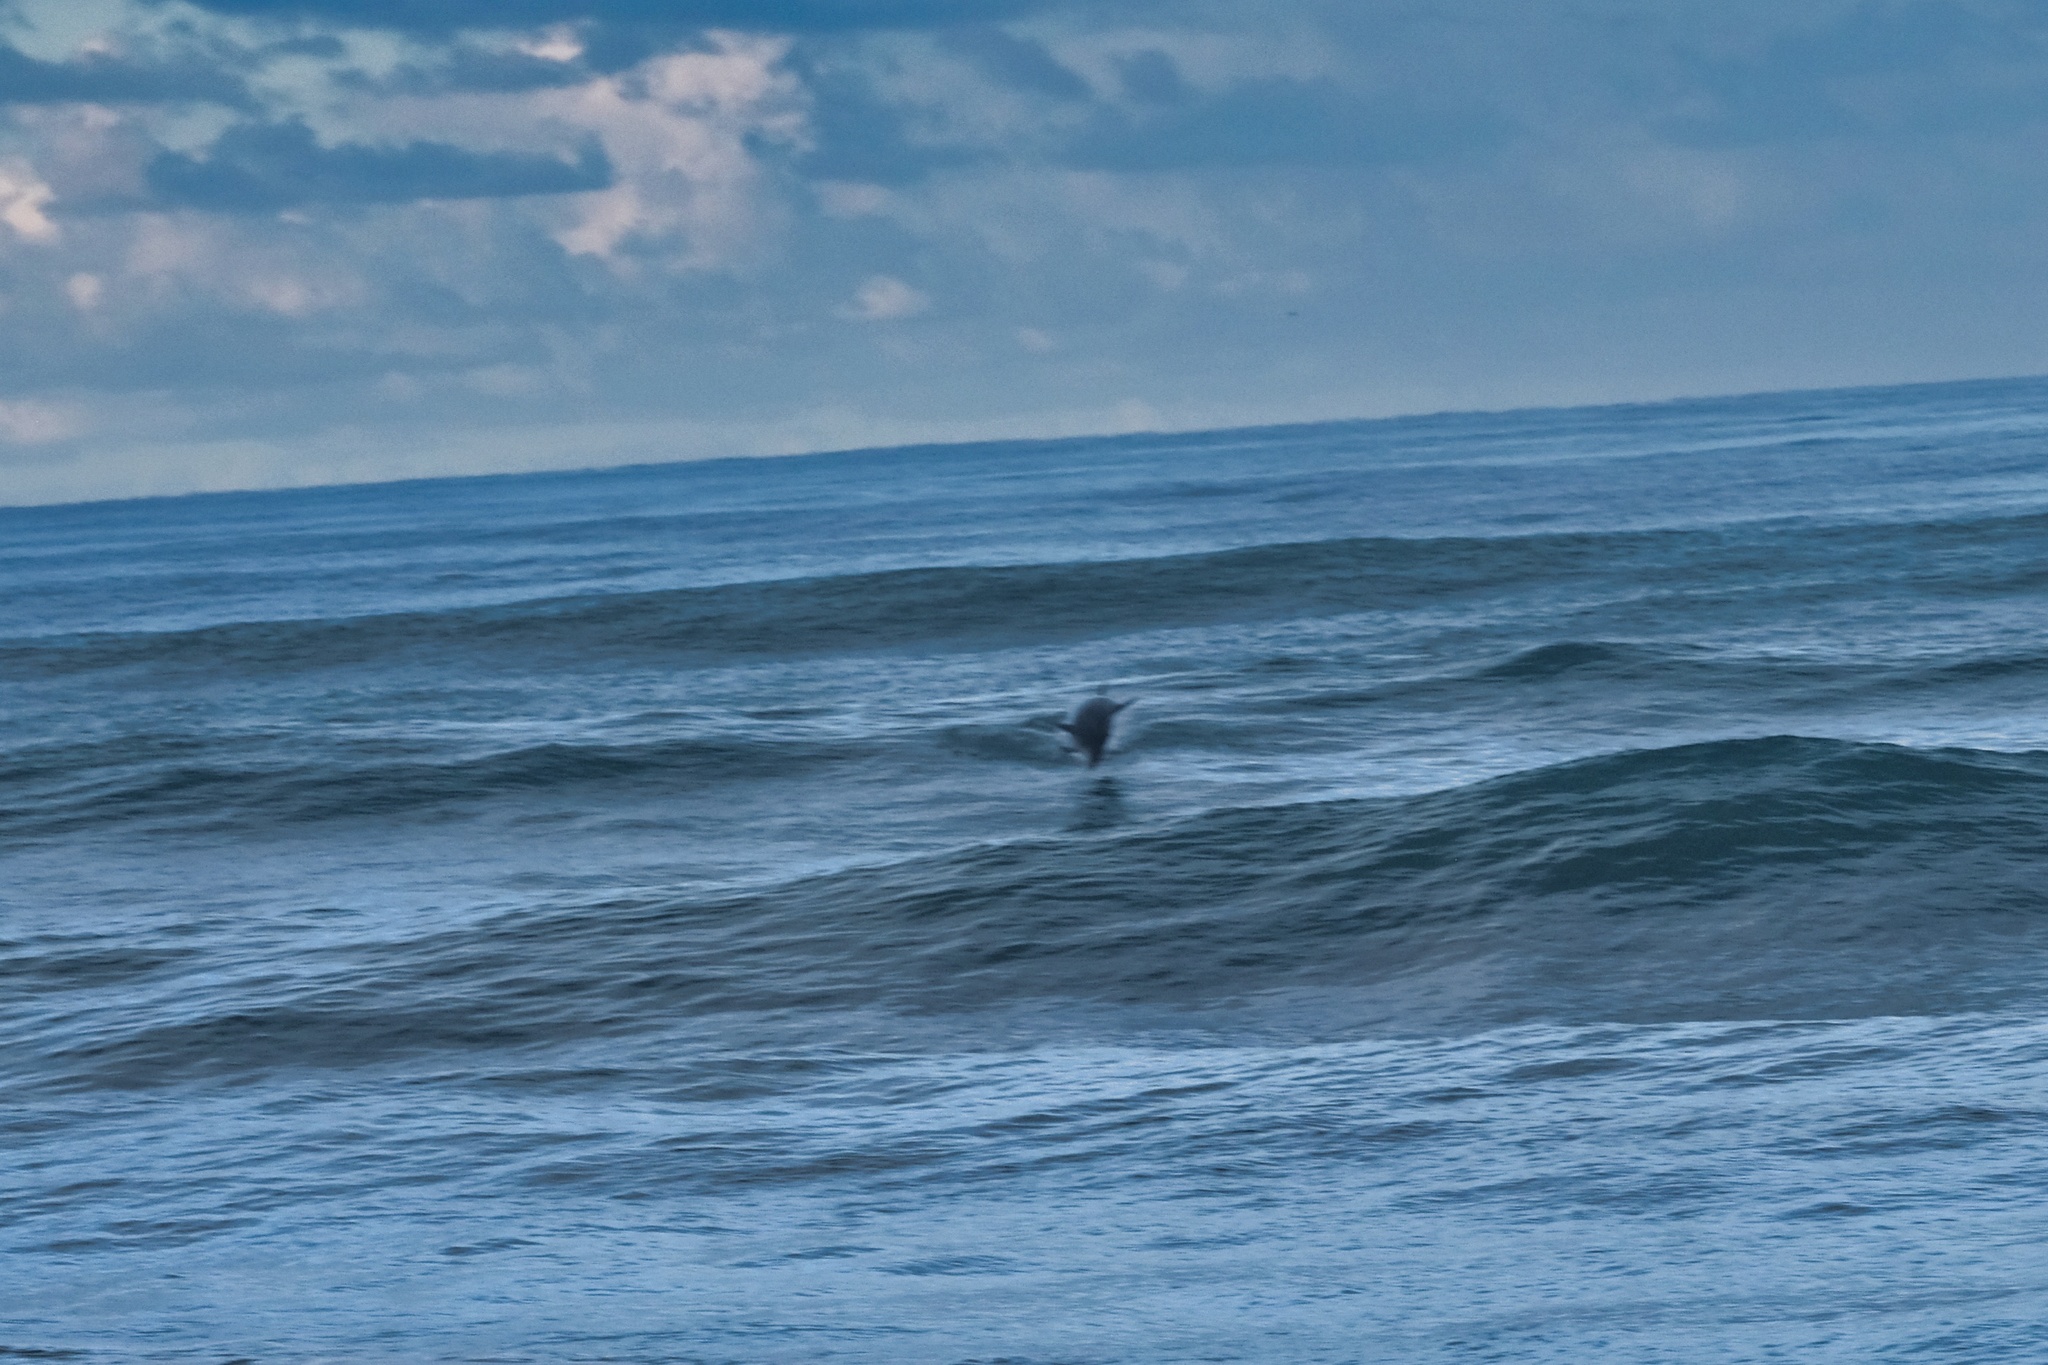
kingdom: Animalia
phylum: Chordata
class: Mammalia
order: Cetacea
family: Delphinidae
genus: Tursiops
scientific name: Tursiops truncatus
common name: Bottlenose dolphin
